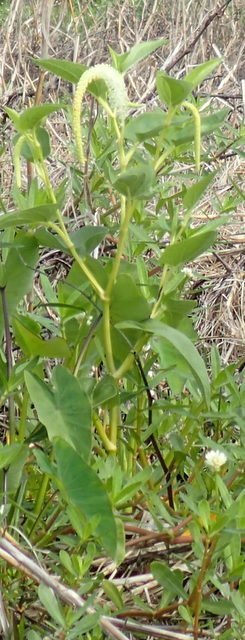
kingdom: Plantae
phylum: Tracheophyta
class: Magnoliopsida
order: Piperales
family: Saururaceae
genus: Saururus
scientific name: Saururus cernuus
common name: Lizard's-tail
